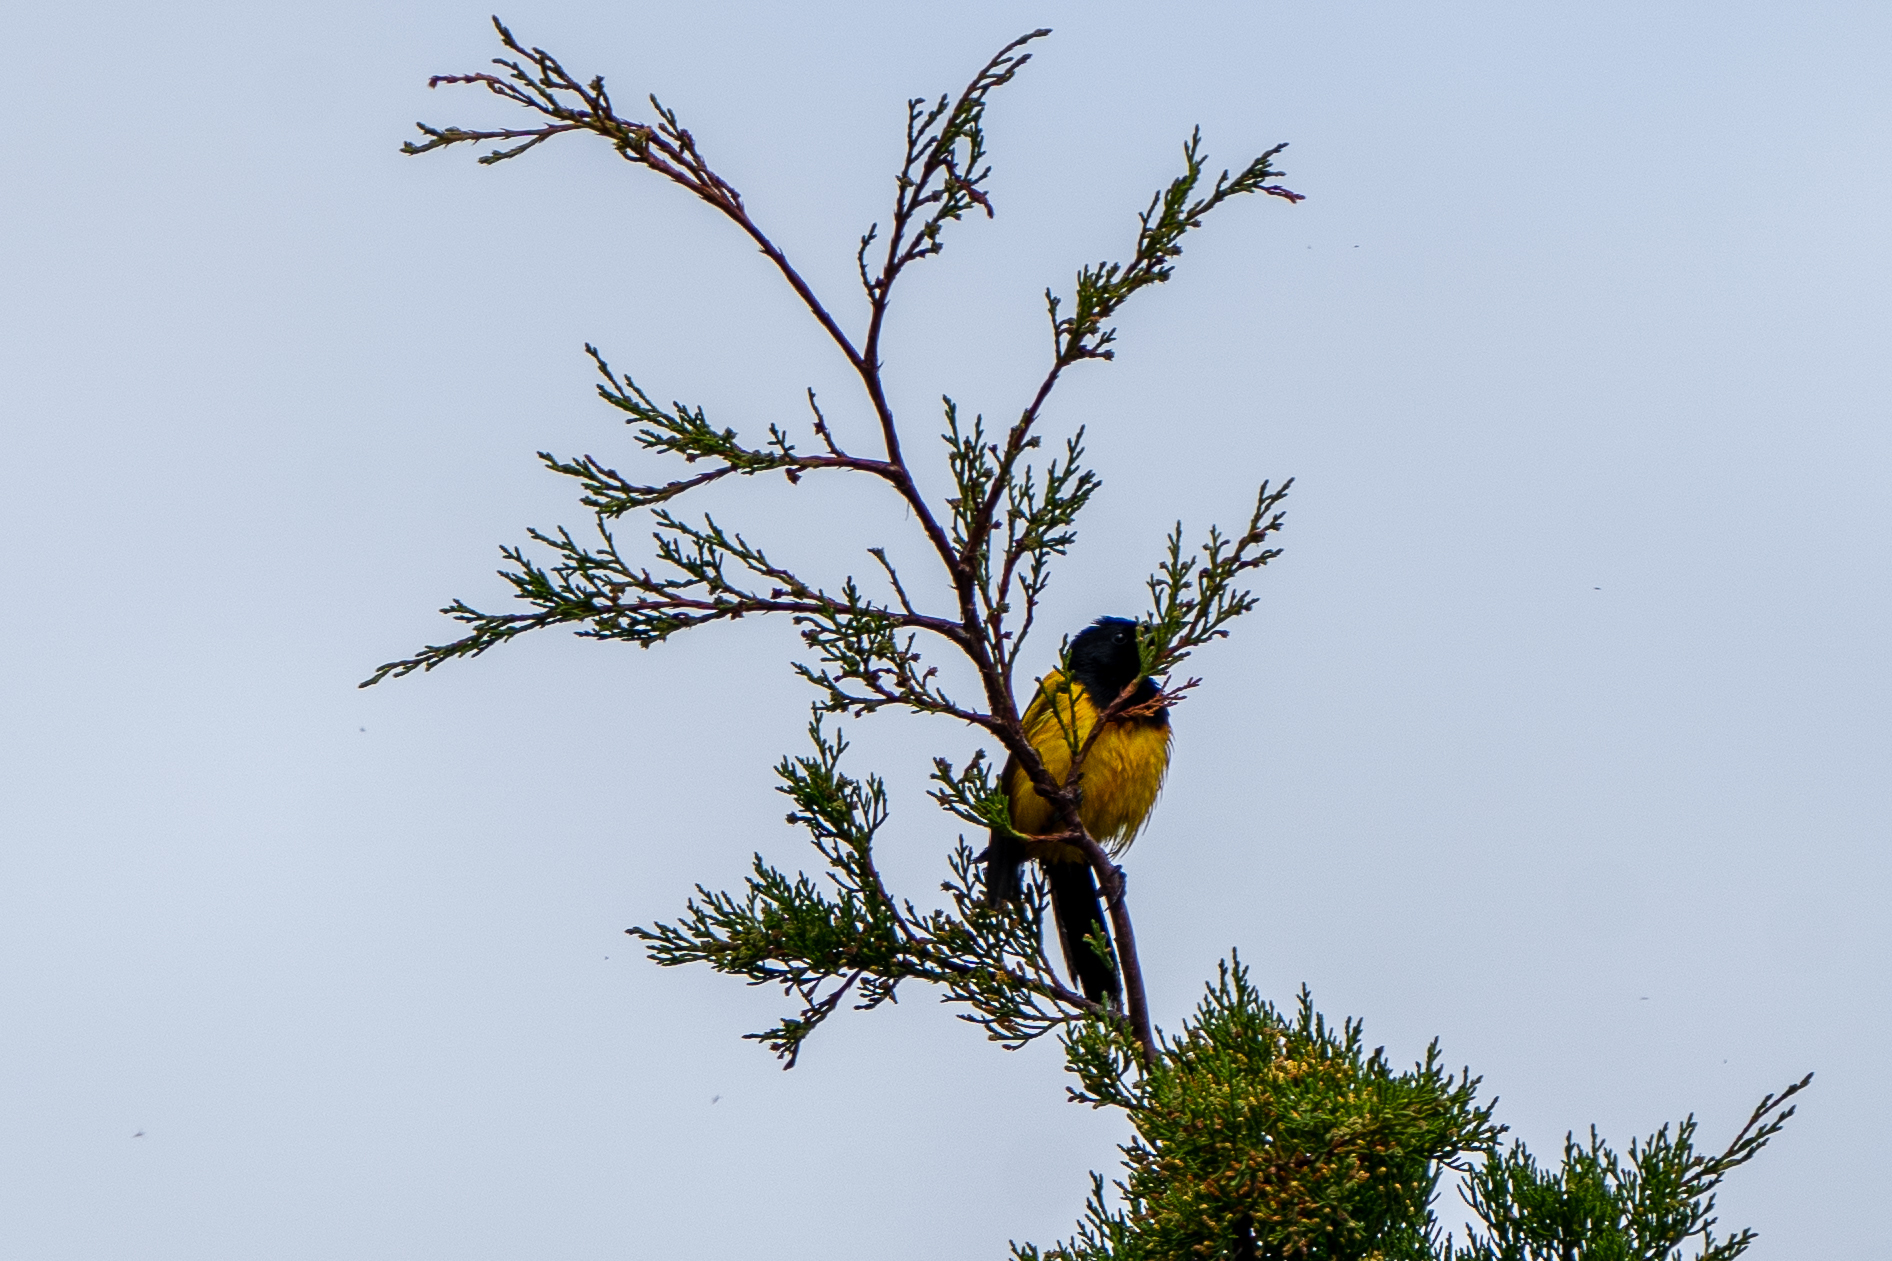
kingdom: Animalia
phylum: Chordata
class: Aves
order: Passeriformes
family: Icteridae
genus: Icterus
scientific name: Icterus wagleri
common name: Black-vented oriole
